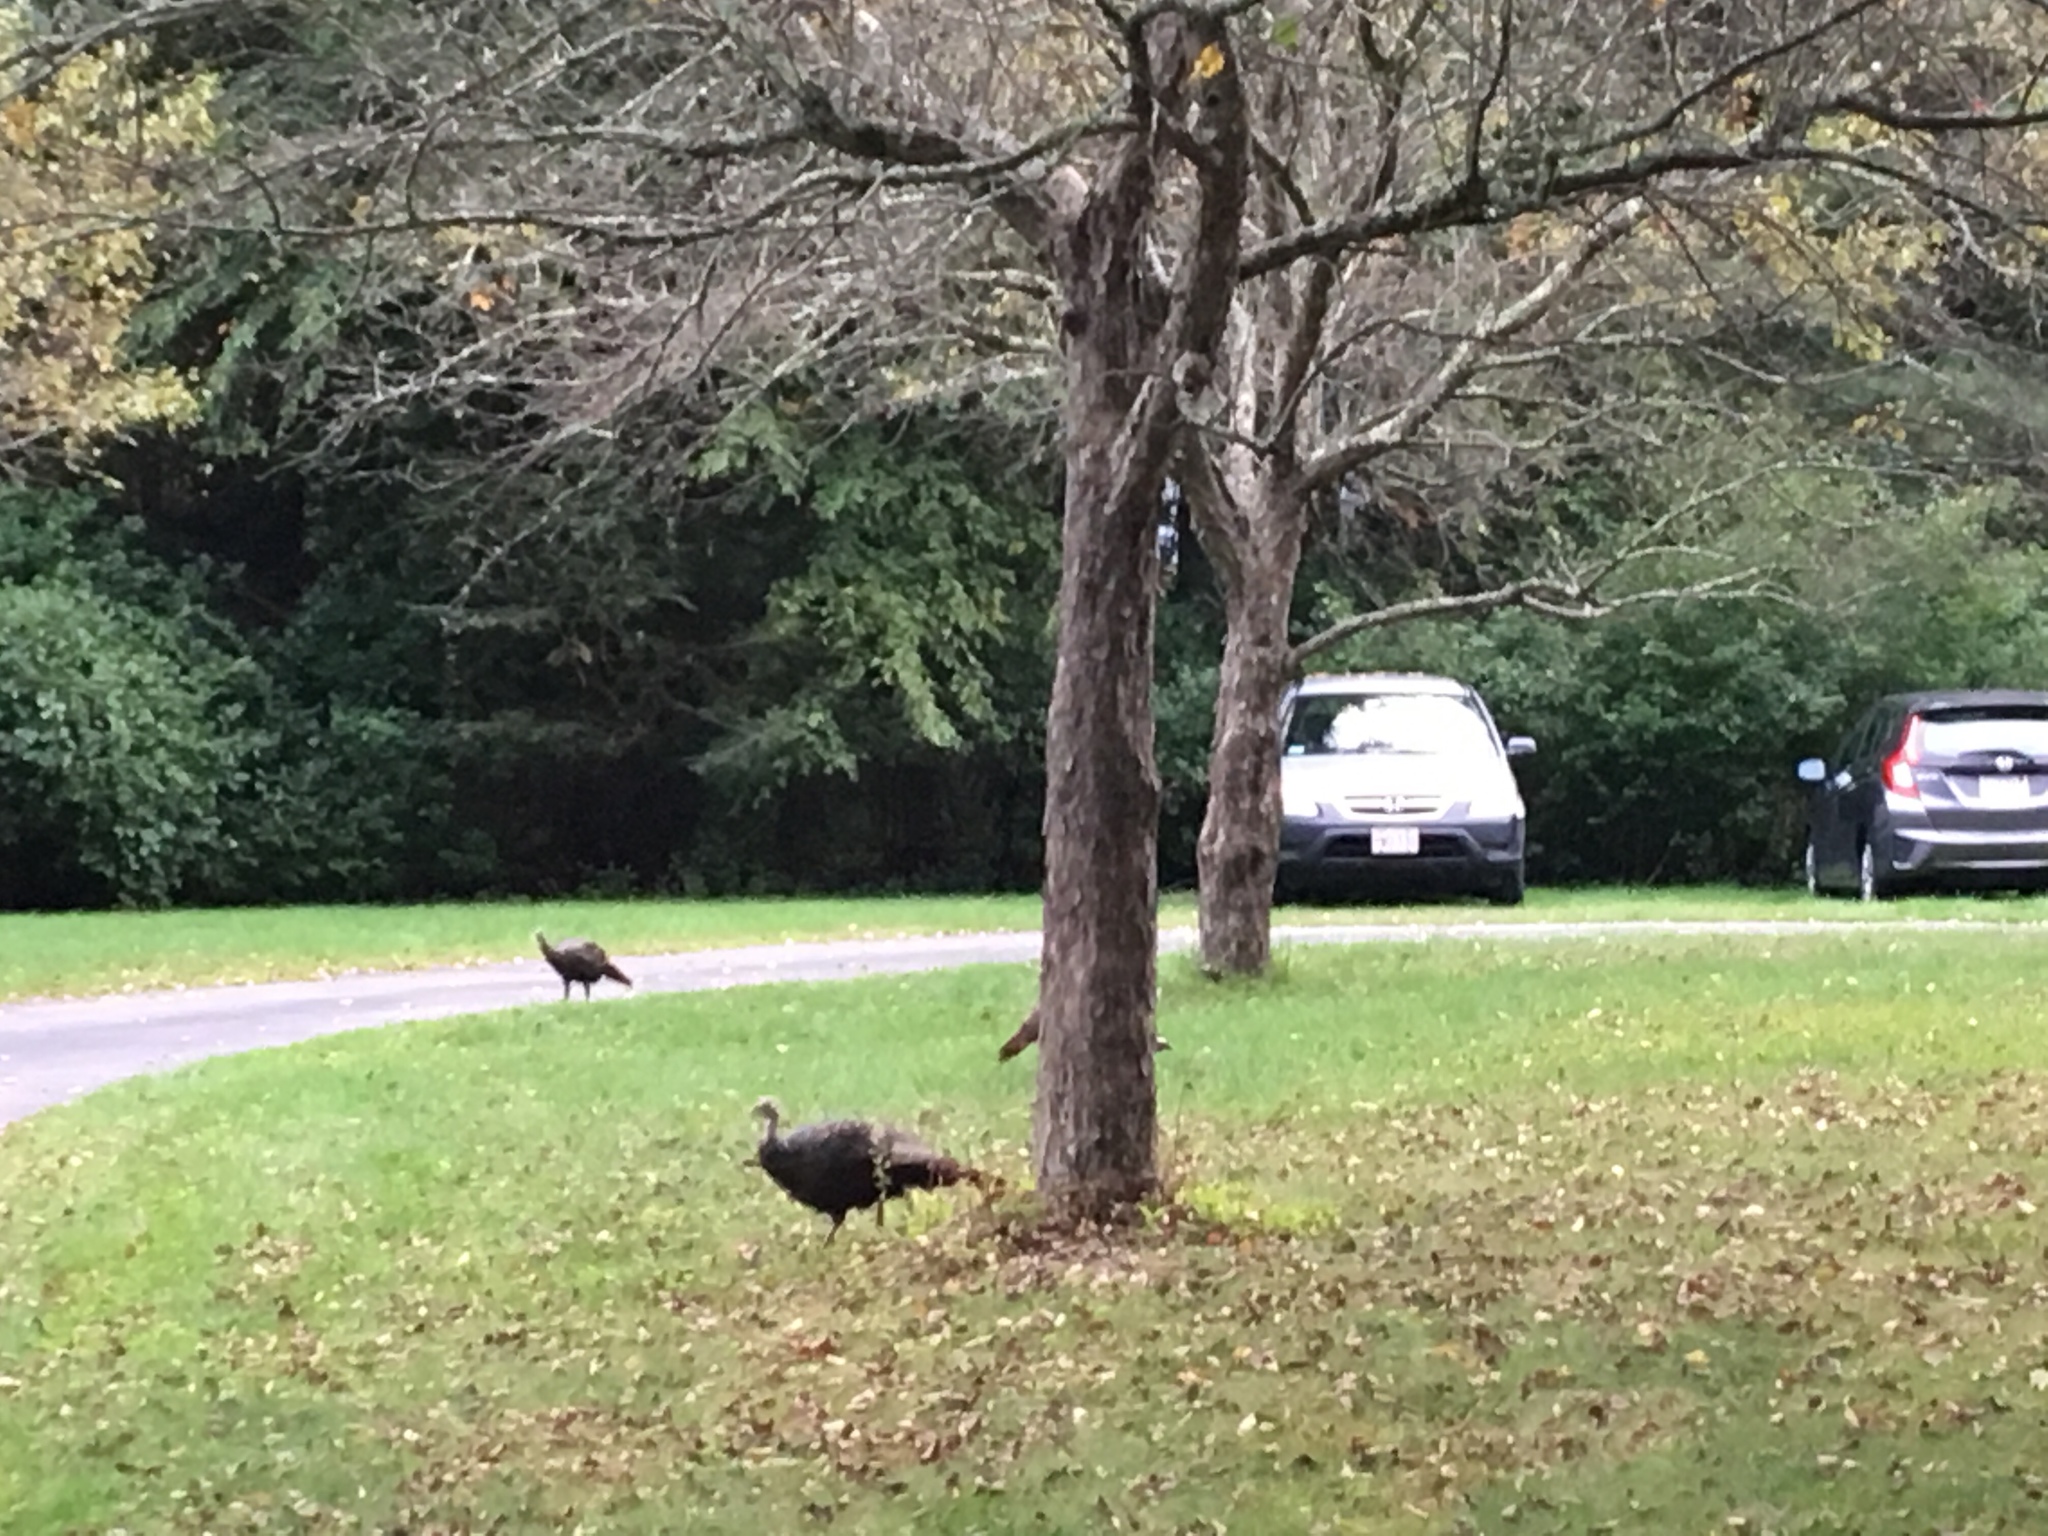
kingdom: Animalia
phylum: Chordata
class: Aves
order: Galliformes
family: Phasianidae
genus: Meleagris
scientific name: Meleagris gallopavo
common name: Wild turkey
